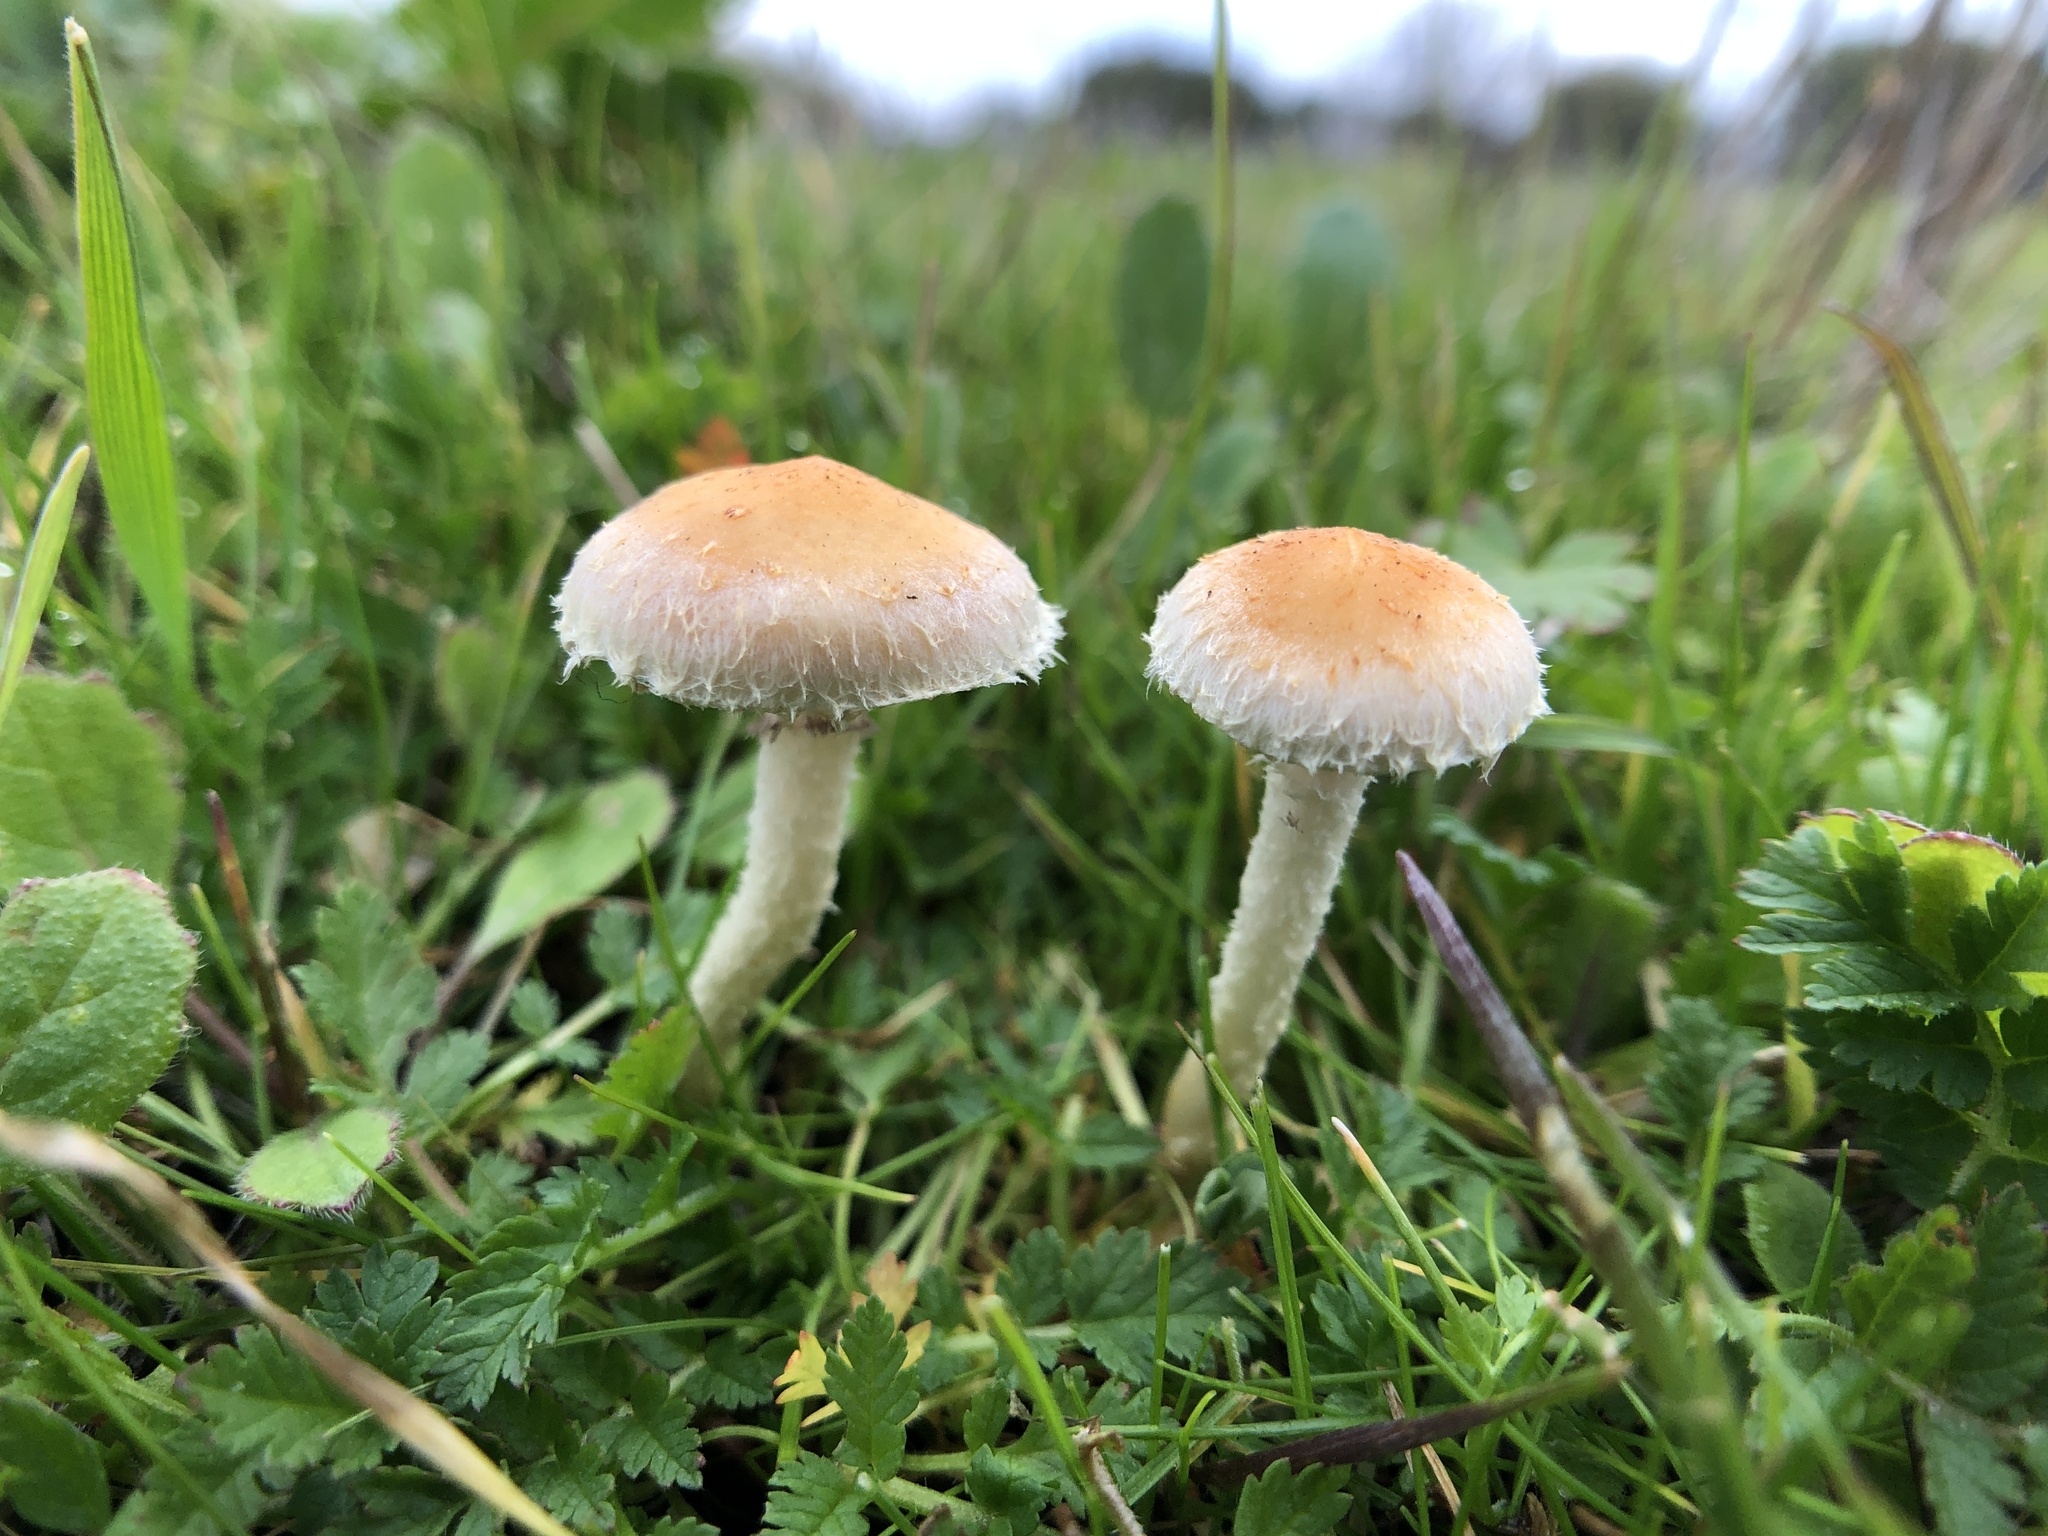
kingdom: Fungi
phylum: Basidiomycota
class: Agaricomycetes
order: Agaricales
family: Strophariaceae
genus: Leratiomyces
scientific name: Leratiomyces percevalii
